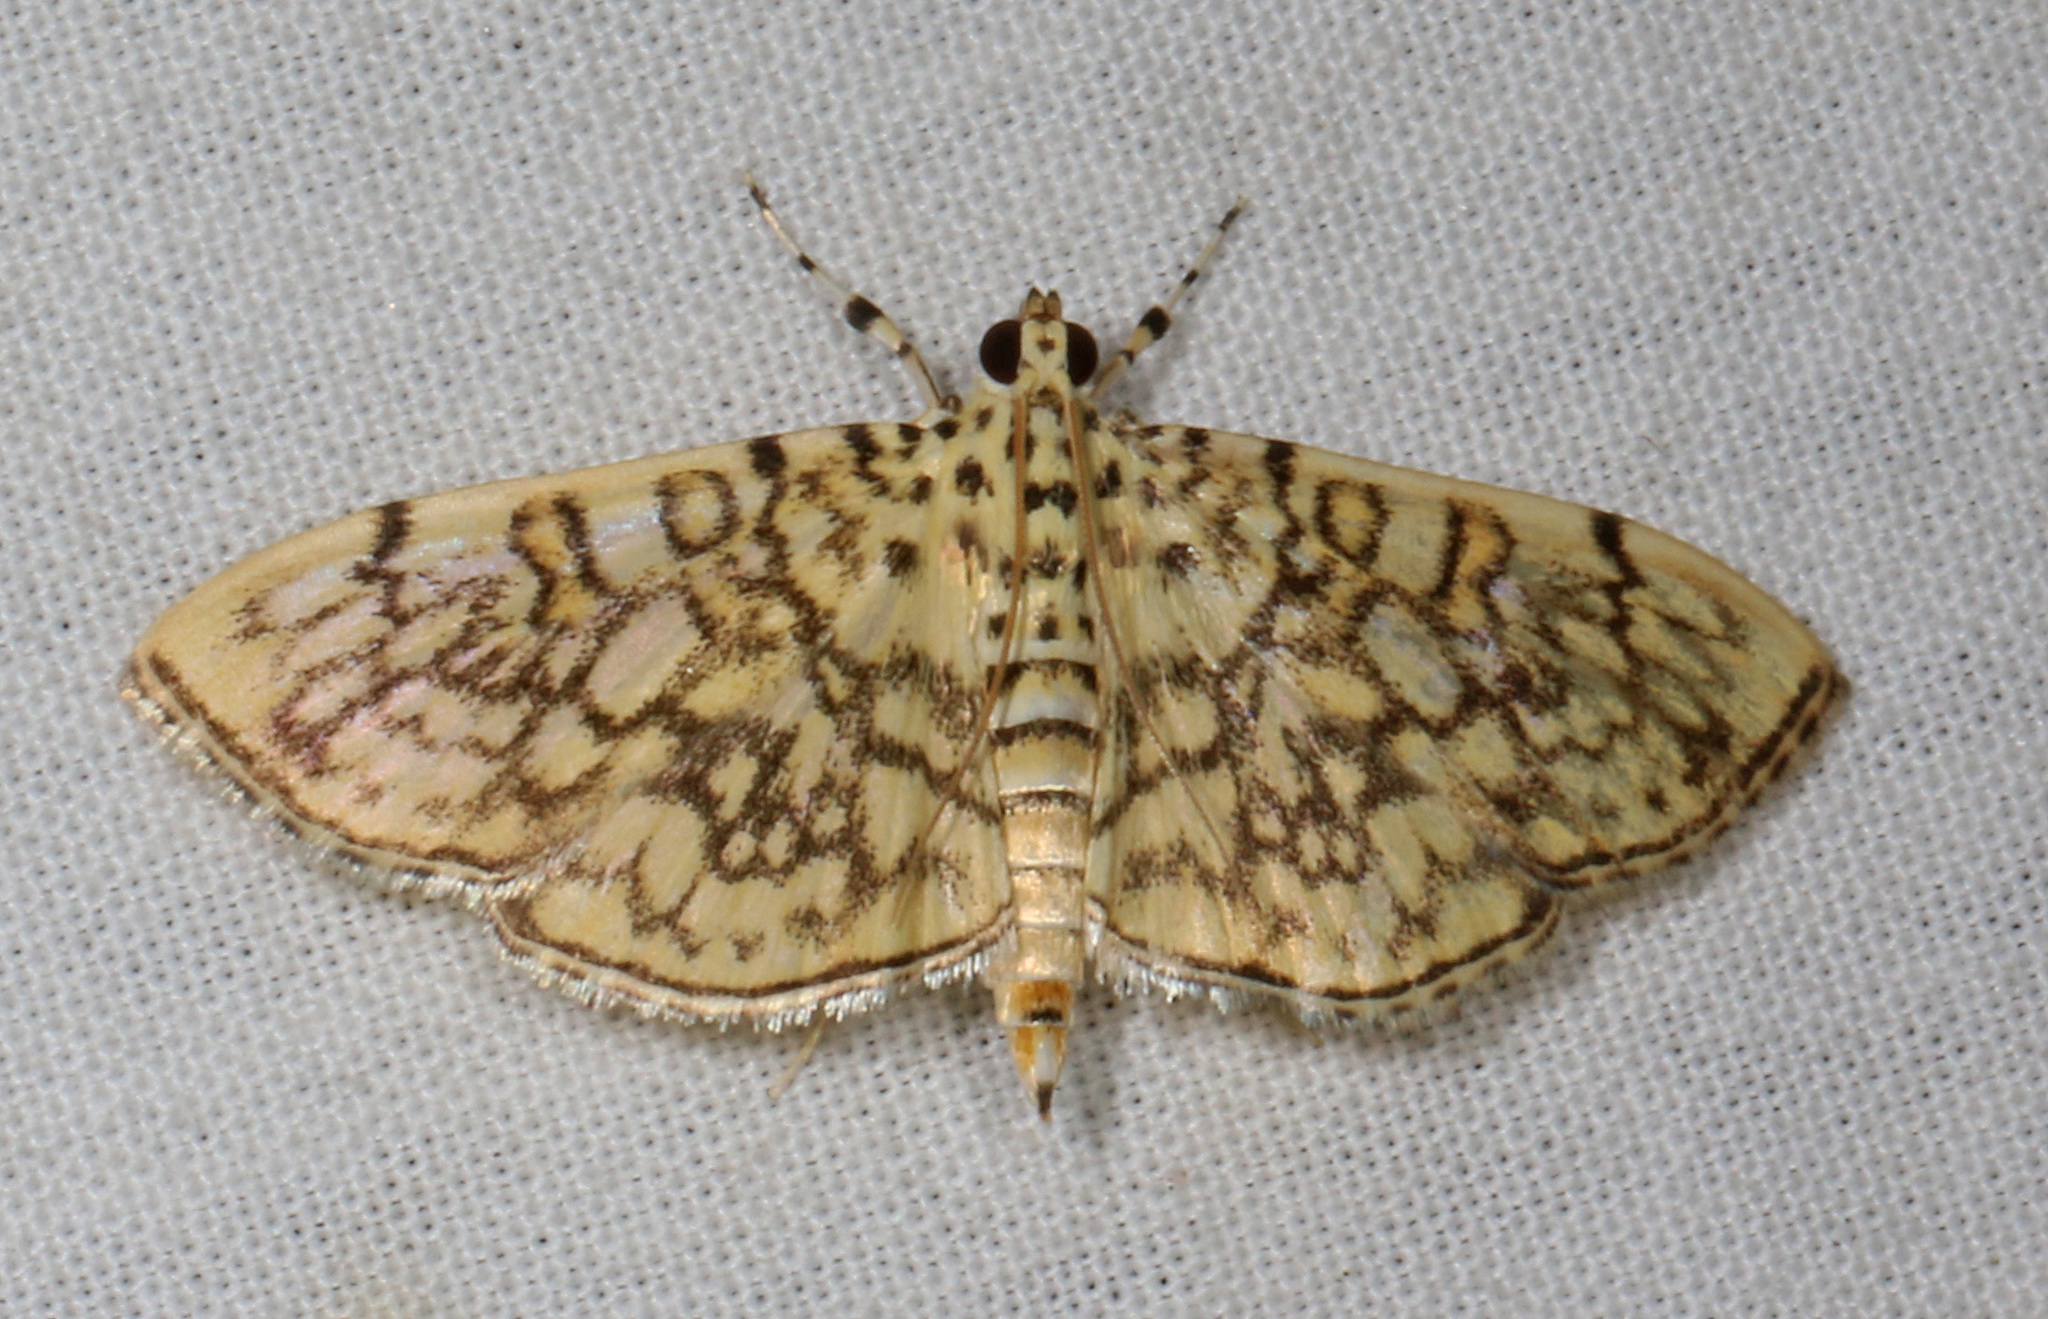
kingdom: Animalia
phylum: Arthropoda
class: Insecta
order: Lepidoptera
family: Crambidae
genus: Haritalodes
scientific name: Haritalodes derogata
